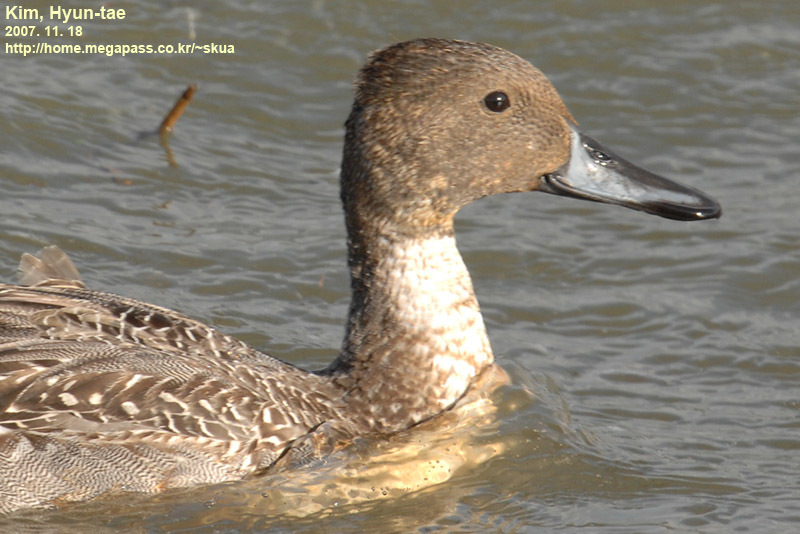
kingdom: Animalia
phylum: Chordata
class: Aves
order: Anseriformes
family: Anatidae
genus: Anas
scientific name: Anas acuta
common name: Northern pintail
